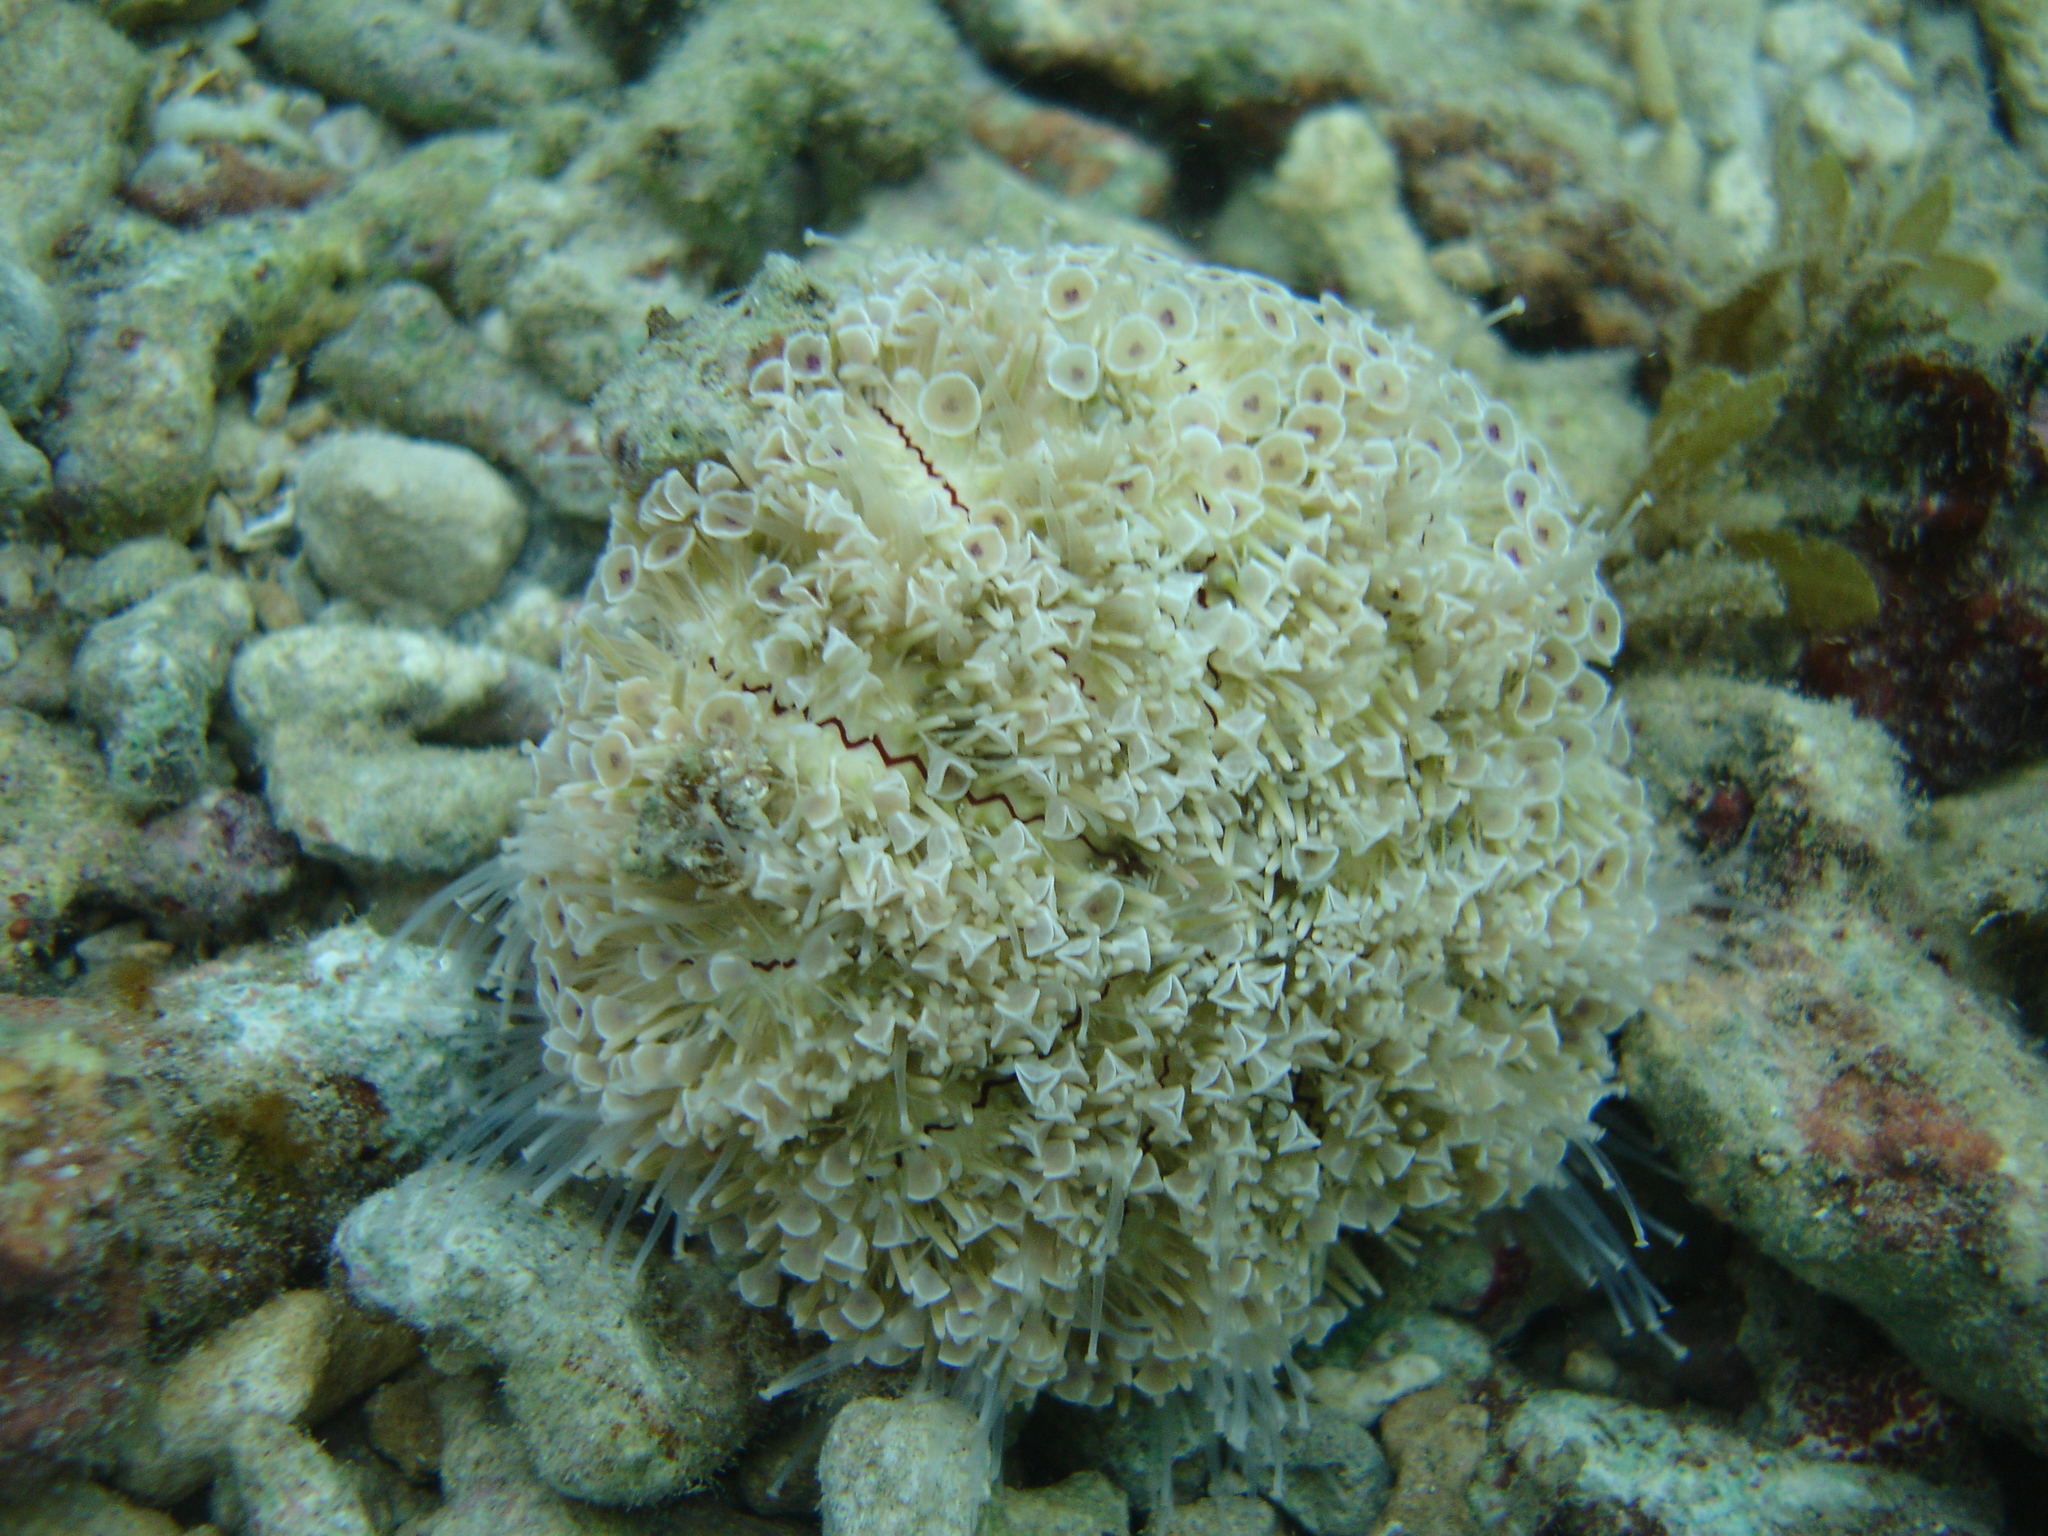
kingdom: Animalia
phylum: Echinodermata
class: Echinoidea
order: Camarodonta
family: Toxopneustidae
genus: Toxopneustes
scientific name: Toxopneustes pileolus
